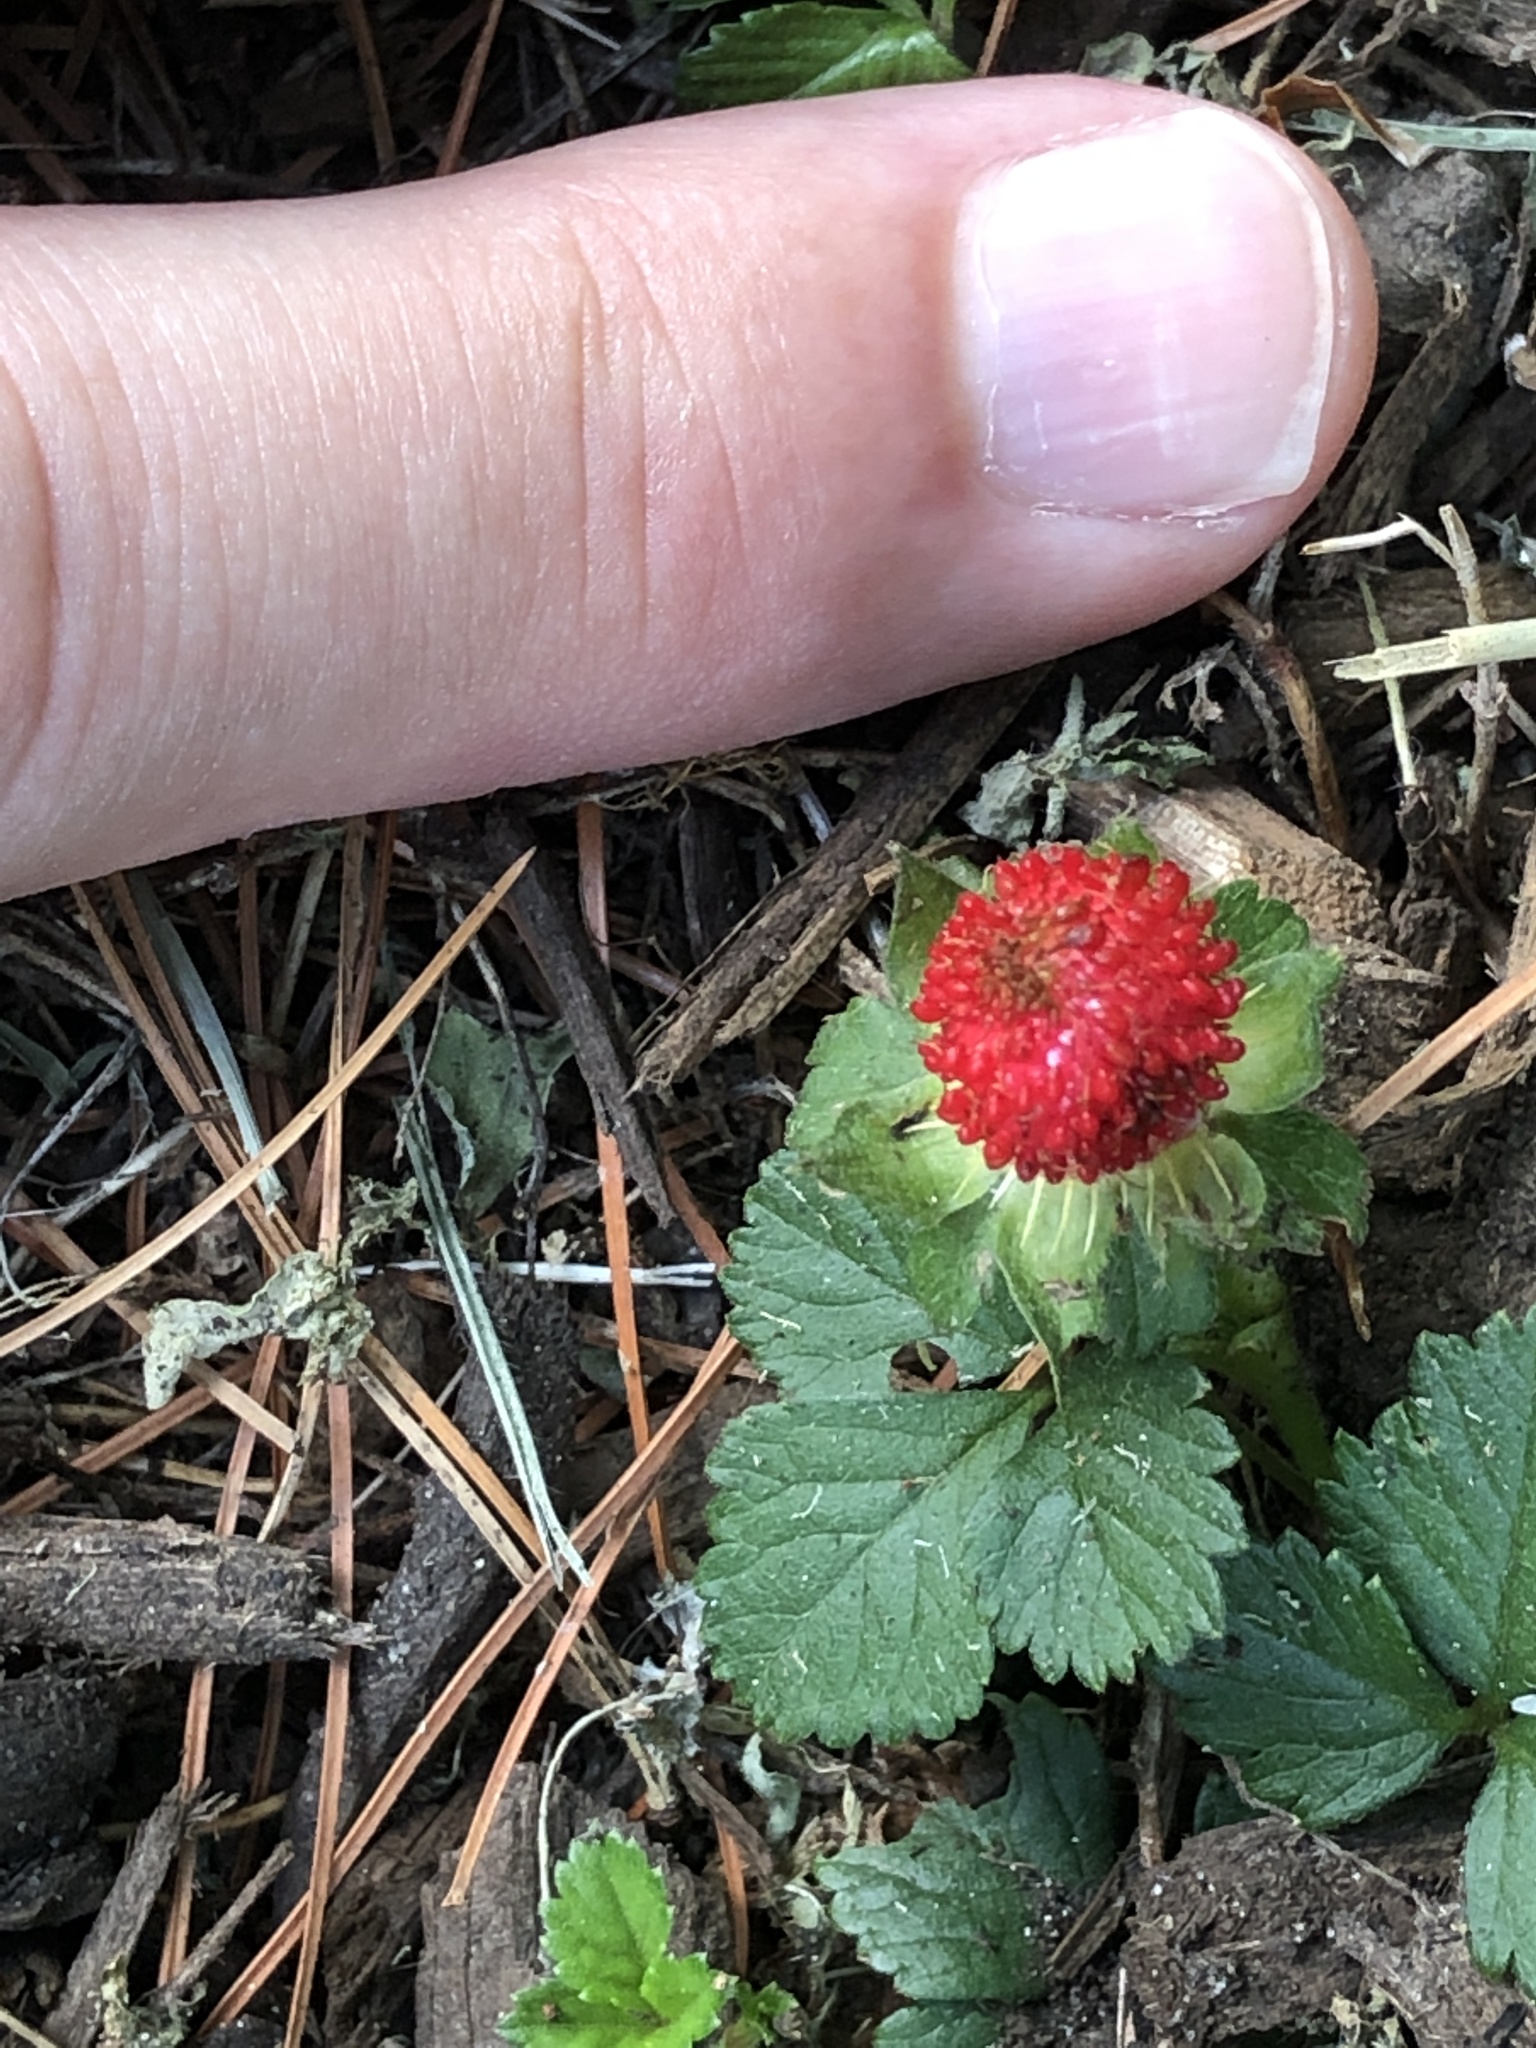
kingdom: Plantae
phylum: Tracheophyta
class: Magnoliopsida
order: Rosales
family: Rosaceae
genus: Potentilla
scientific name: Potentilla indica
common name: Yellow-flowered strawberry
